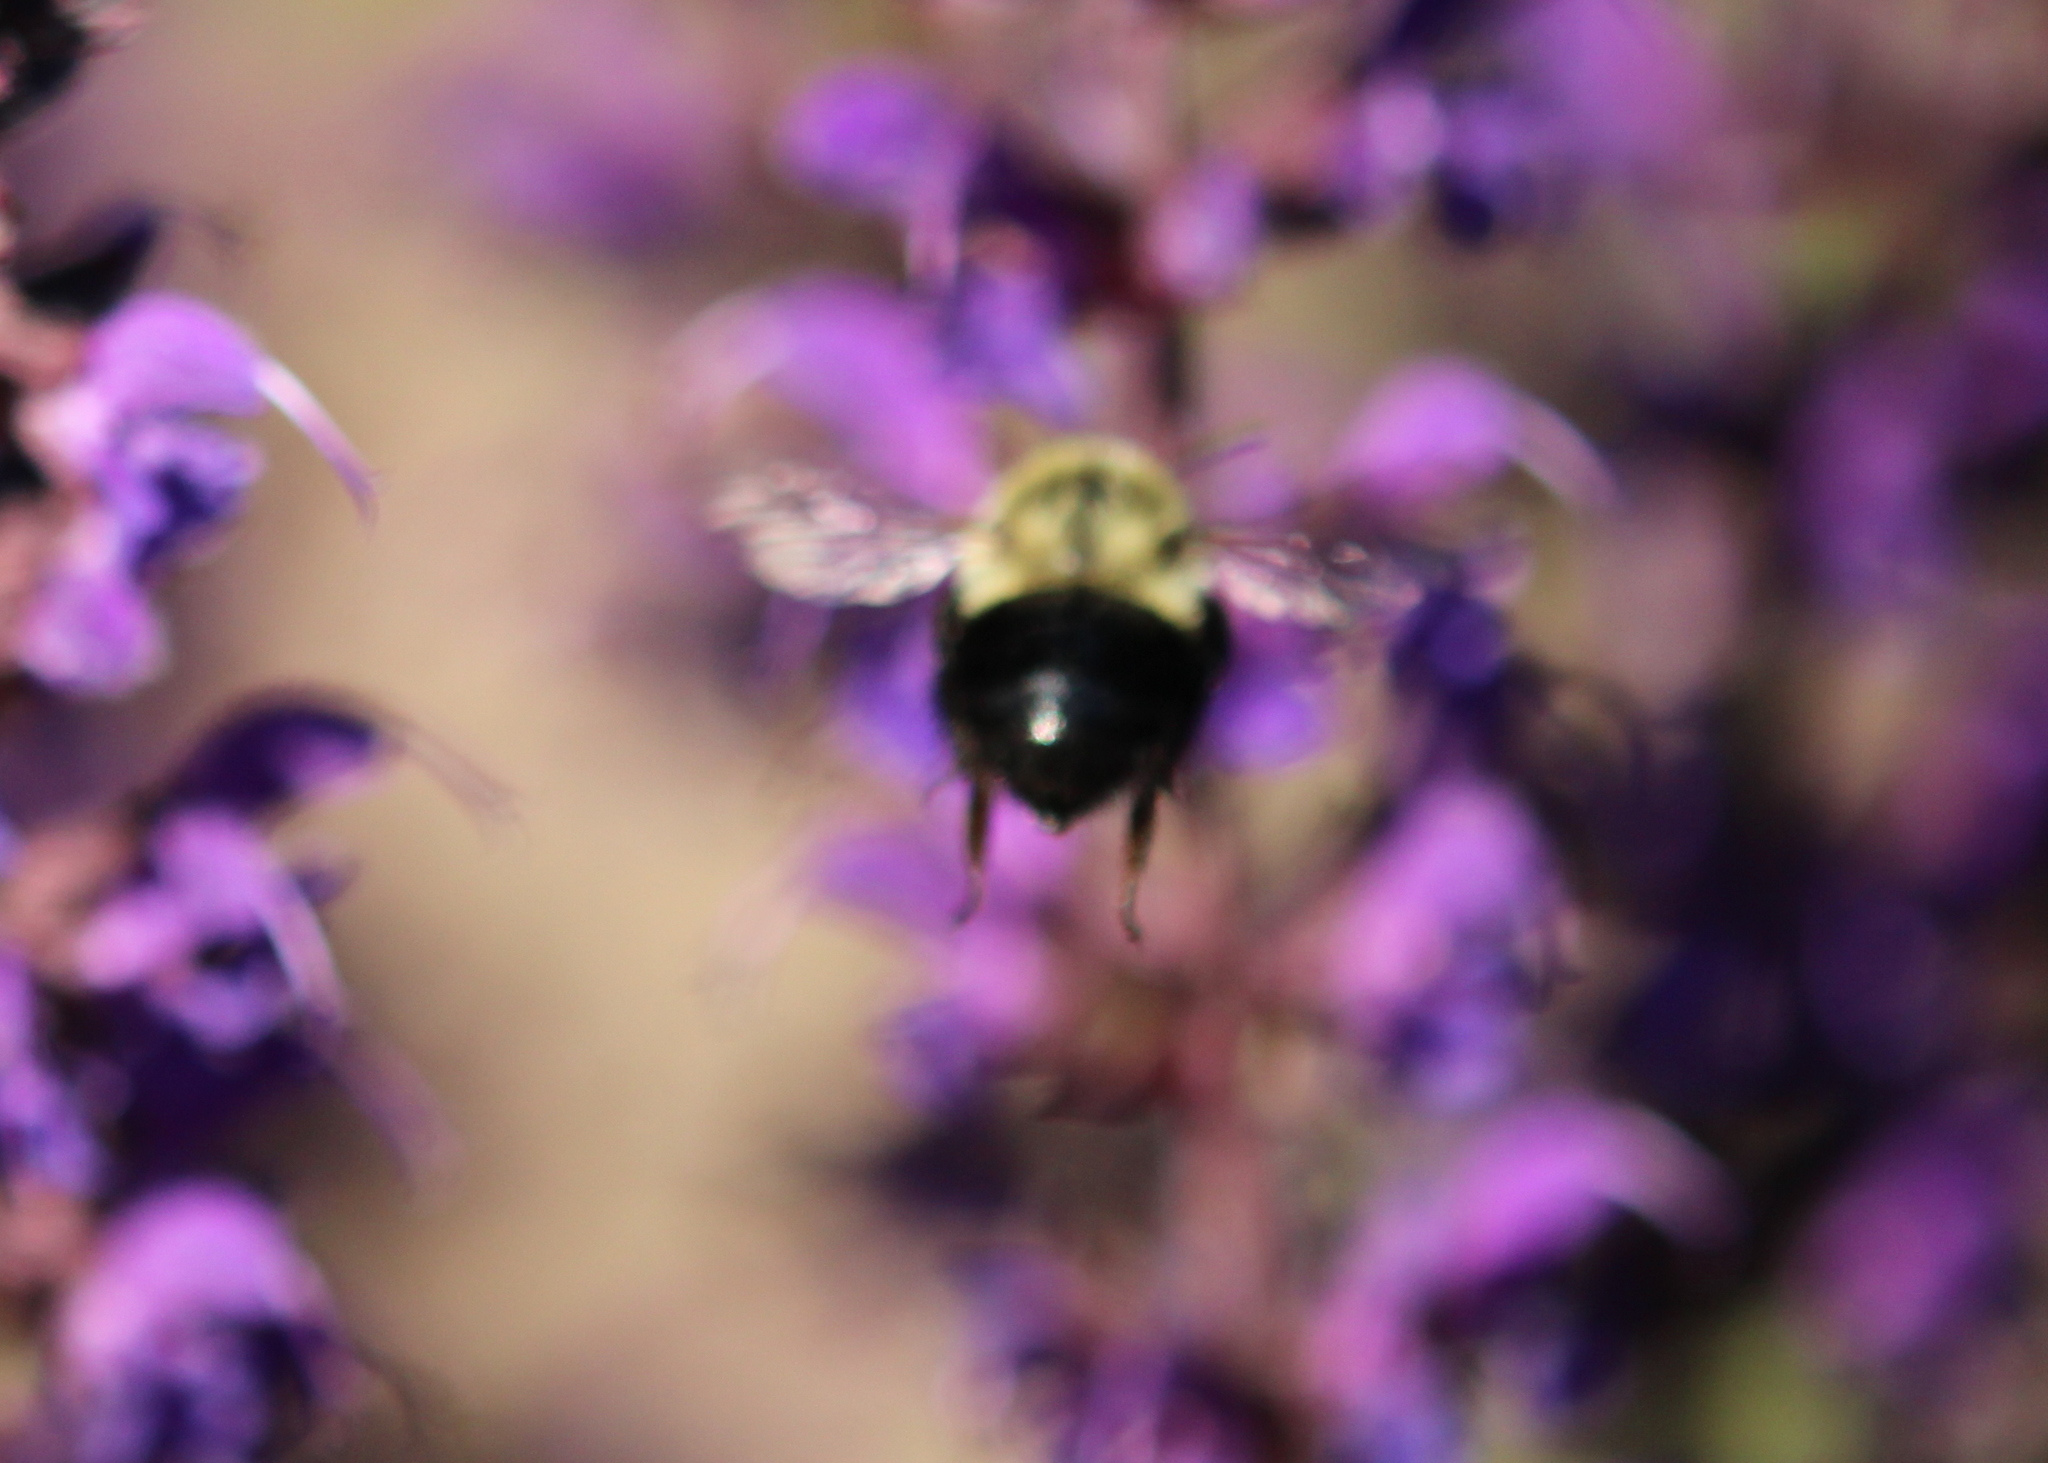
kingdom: Animalia
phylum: Arthropoda
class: Insecta
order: Hymenoptera
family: Apidae
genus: Bombus
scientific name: Bombus impatiens
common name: Common eastern bumble bee
